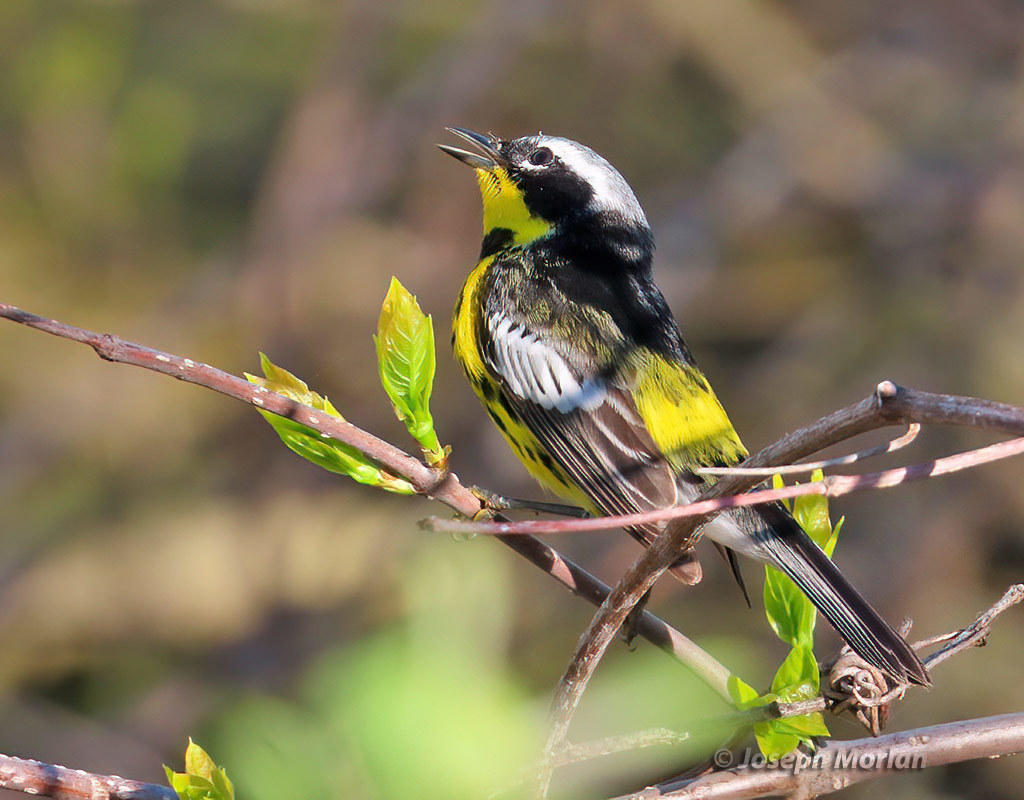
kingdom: Animalia
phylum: Chordata
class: Aves
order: Passeriformes
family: Parulidae
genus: Setophaga
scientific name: Setophaga magnolia
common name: Magnolia warbler
